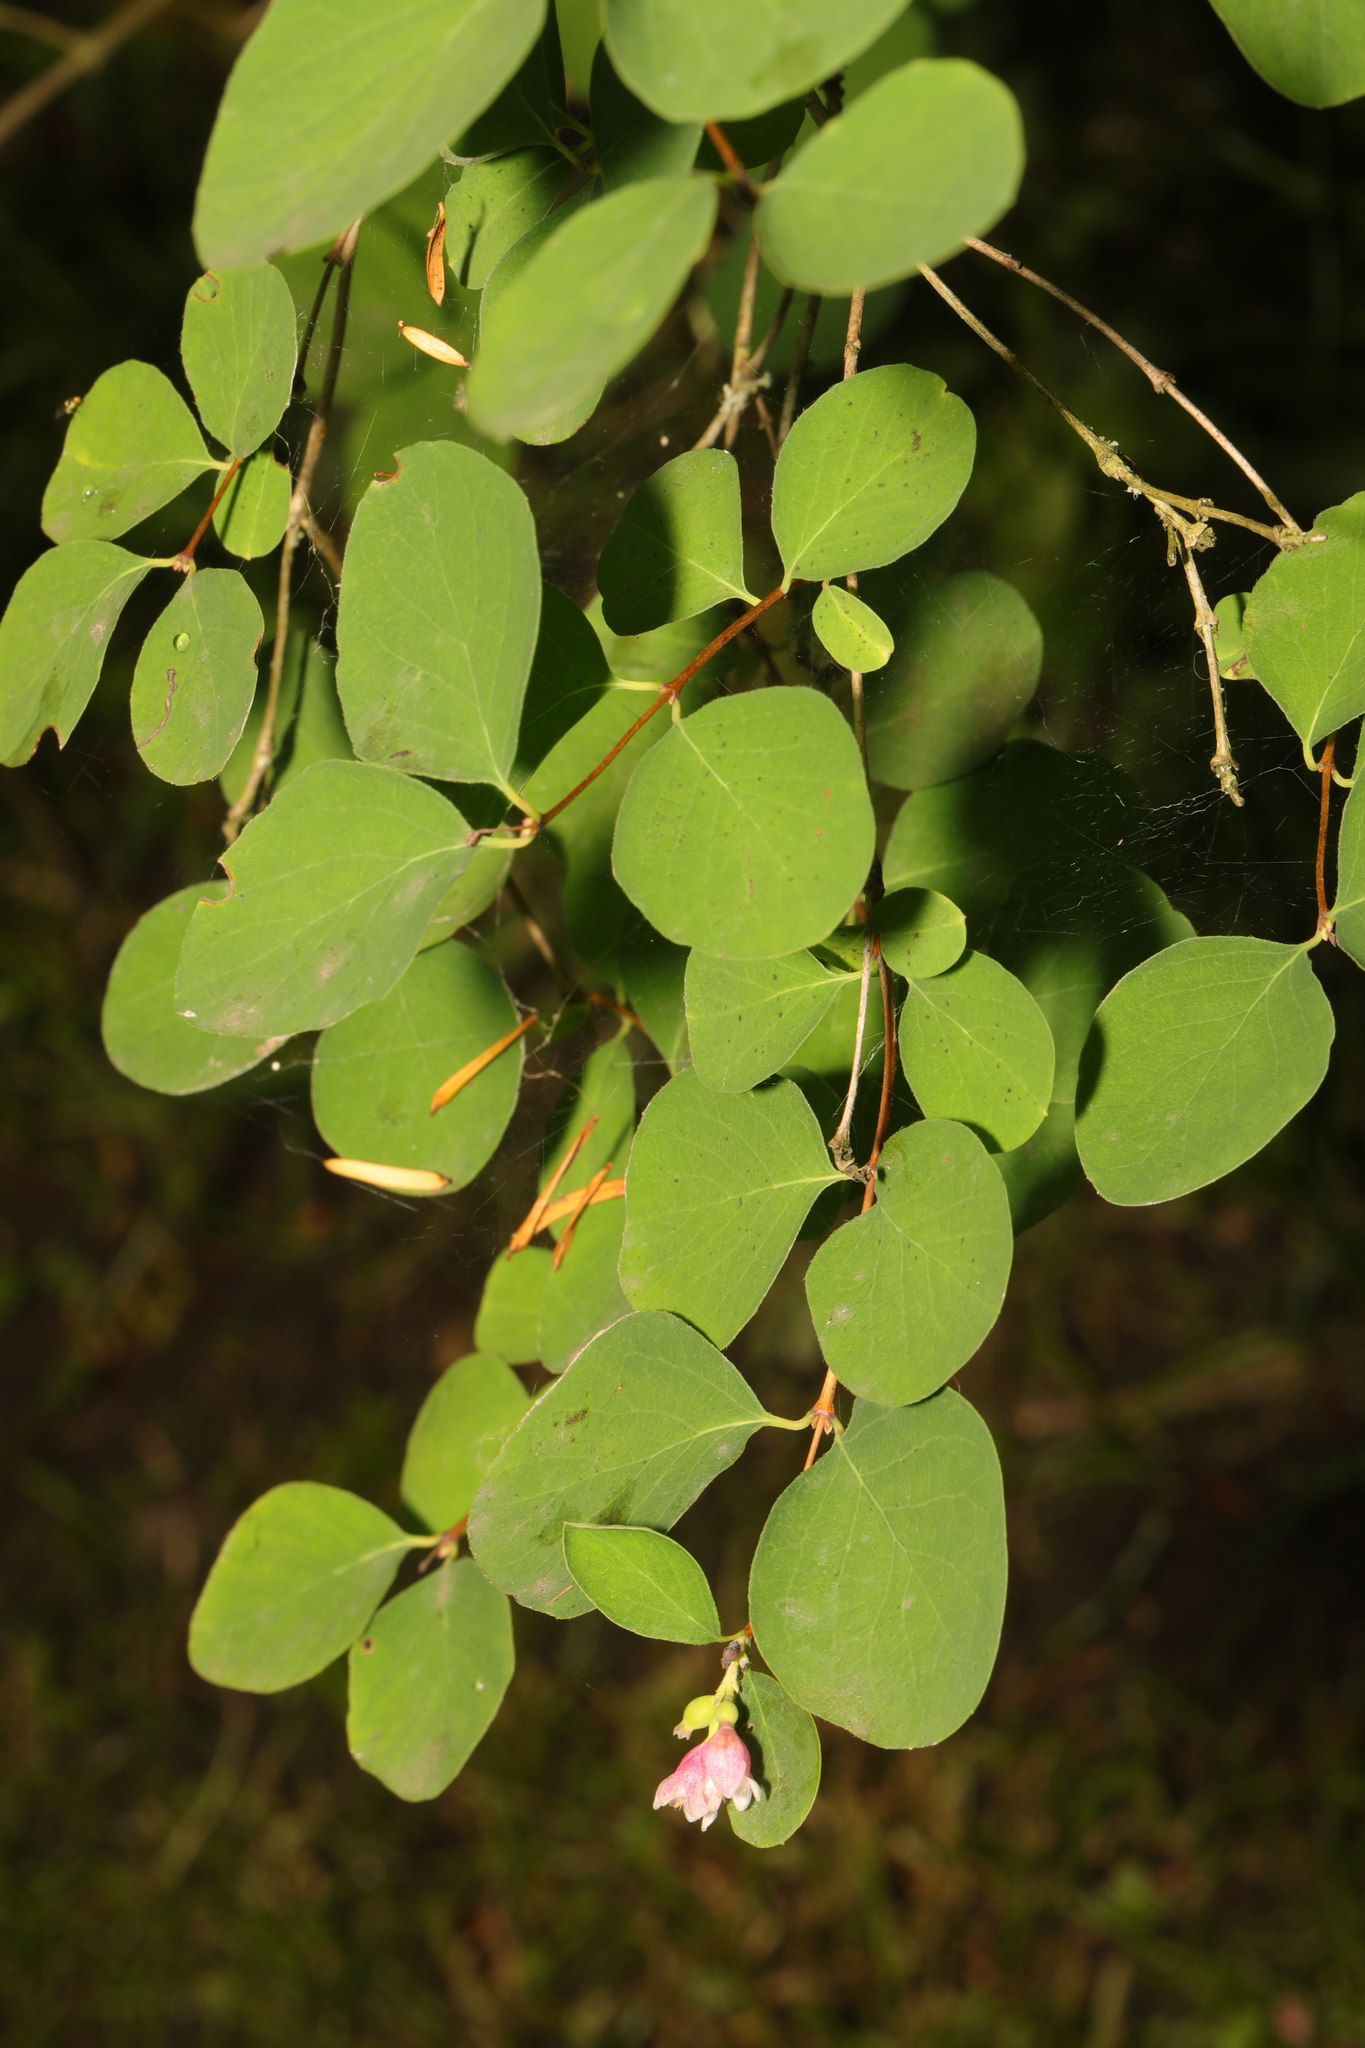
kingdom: Plantae
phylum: Tracheophyta
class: Magnoliopsida
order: Dipsacales
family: Caprifoliaceae
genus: Symphoricarpos
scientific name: Symphoricarpos albus
